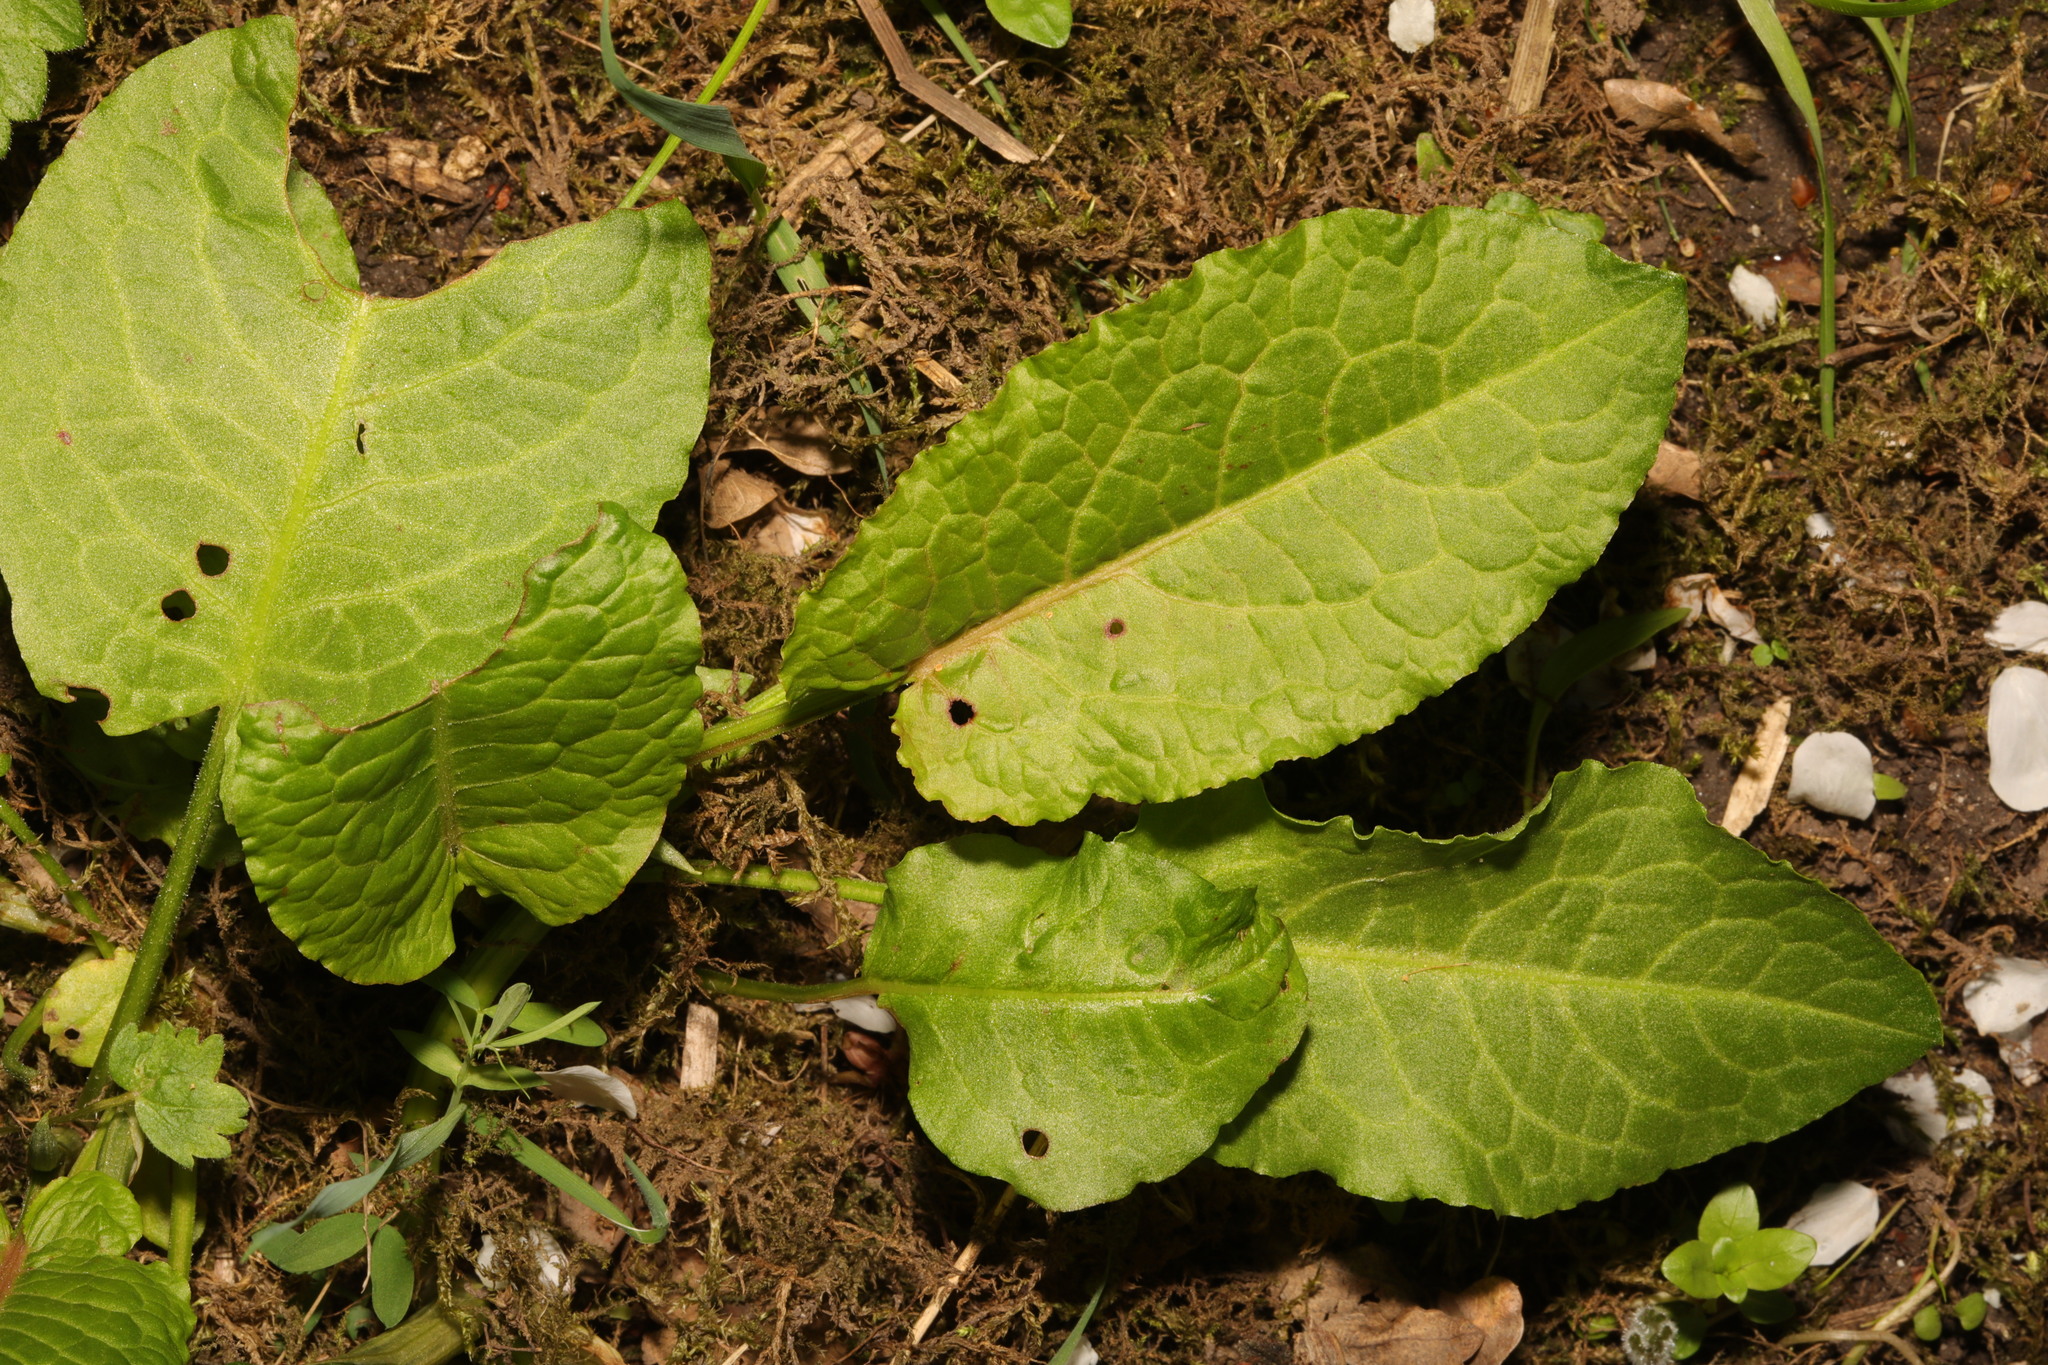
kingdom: Plantae
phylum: Tracheophyta
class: Magnoliopsida
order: Caryophyllales
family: Polygonaceae
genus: Rumex
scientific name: Rumex obtusifolius
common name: Bitter dock
